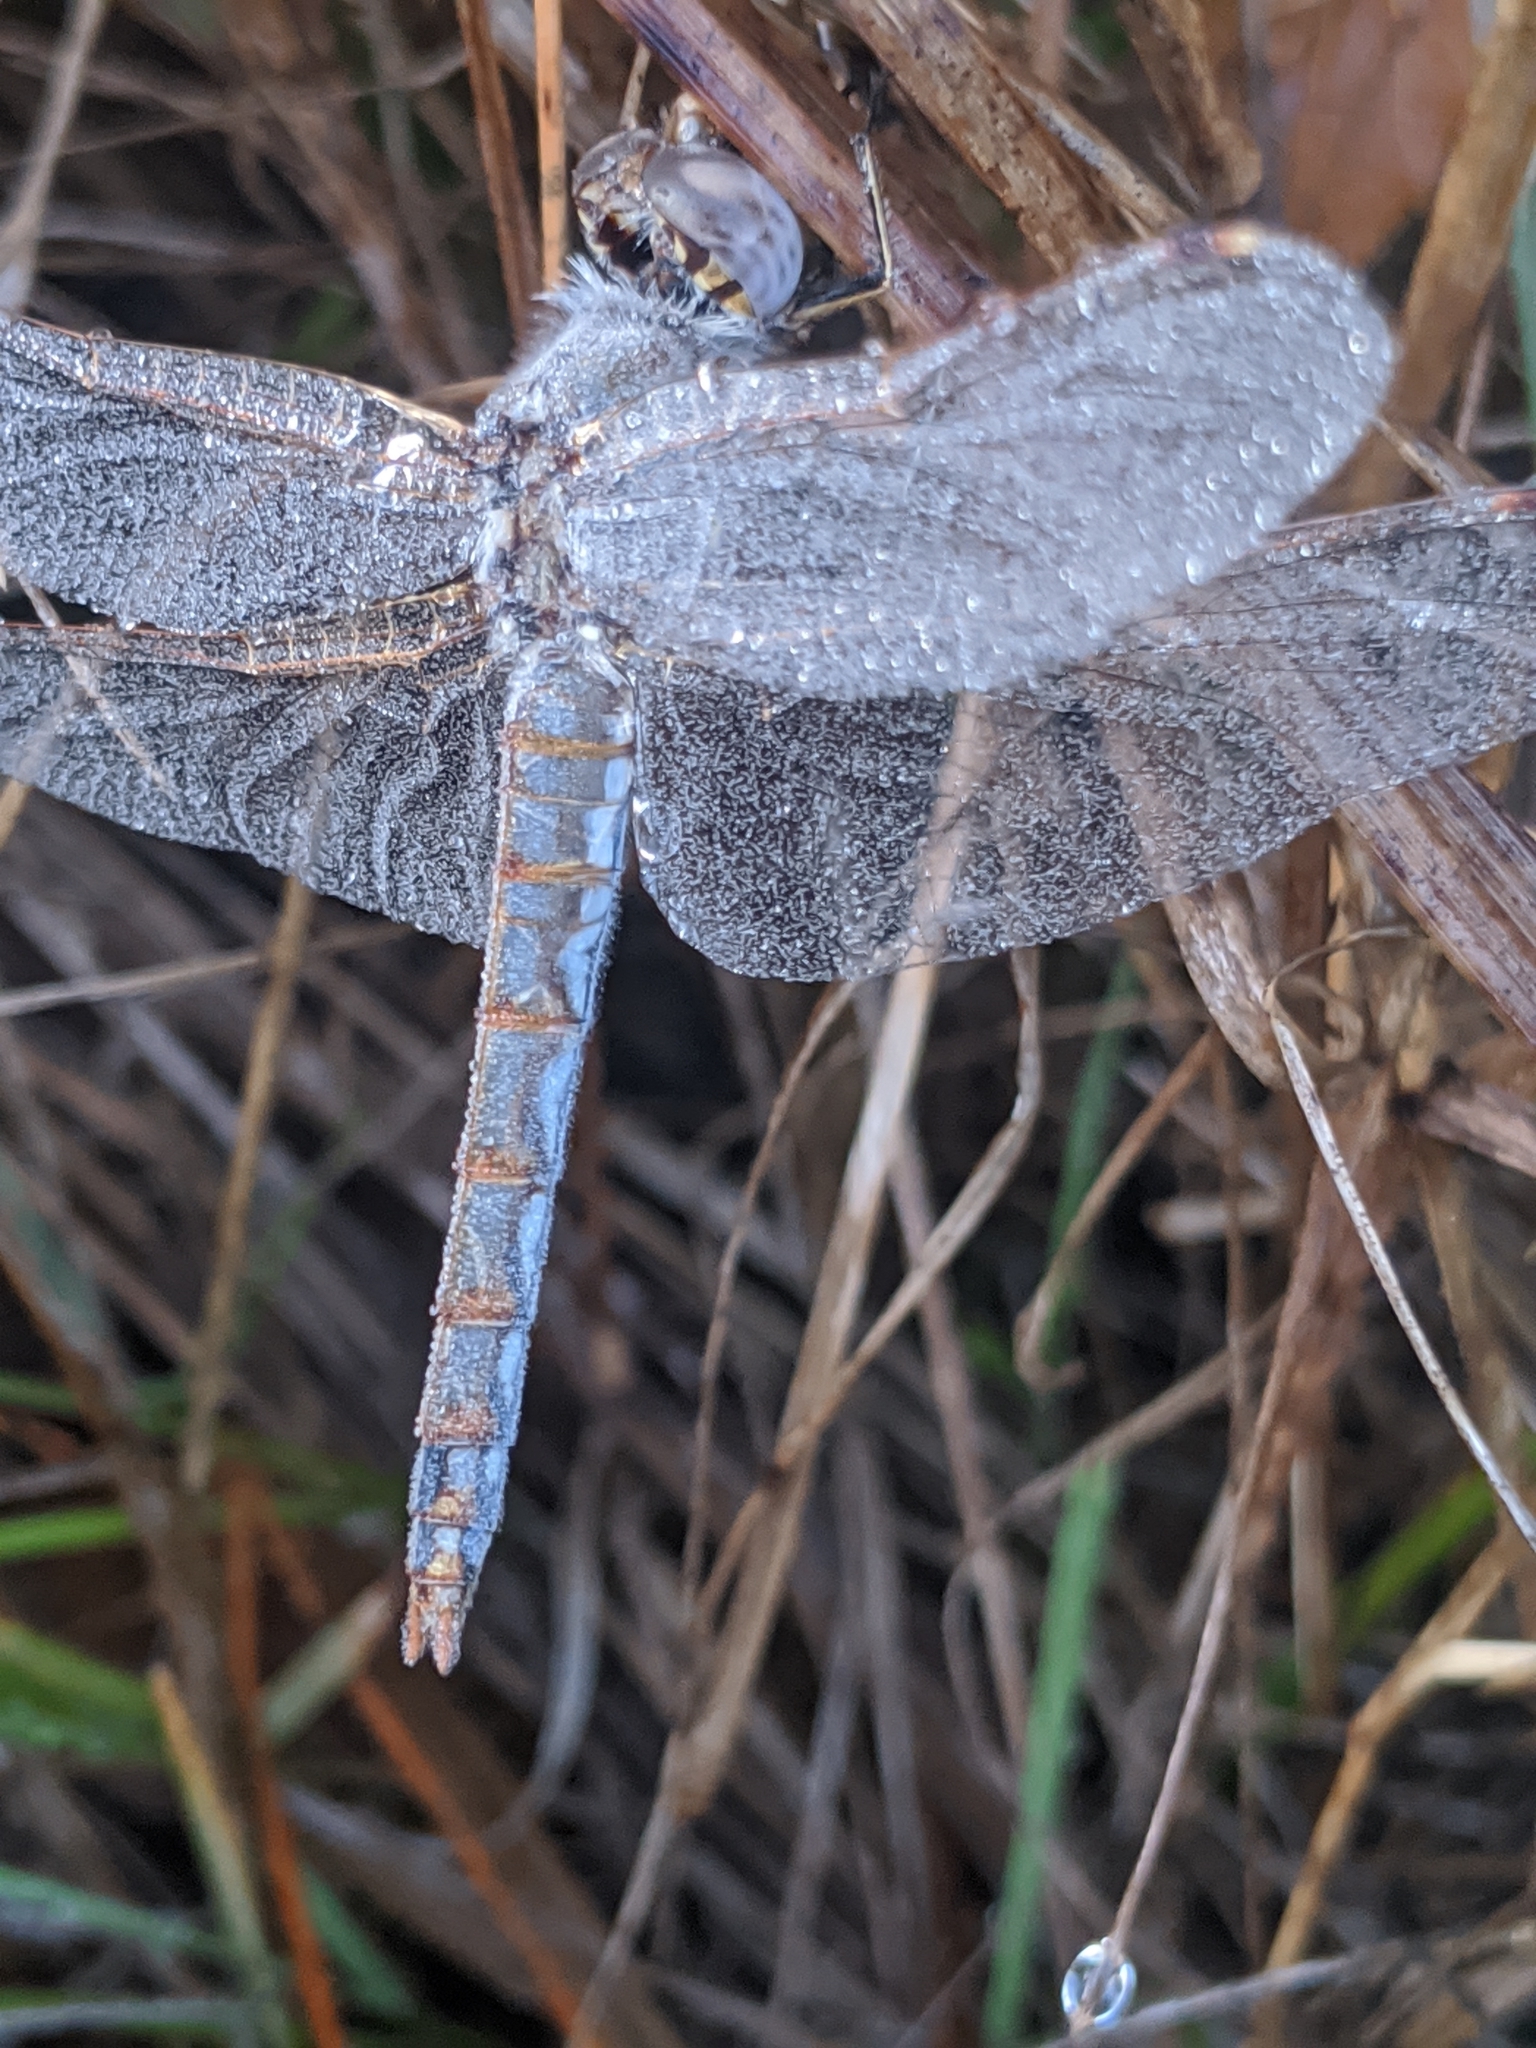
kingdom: Animalia
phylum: Arthropoda
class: Insecta
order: Odonata
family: Libellulidae
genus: Sympetrum
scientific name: Sympetrum corruptum
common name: Variegated meadowhawk
